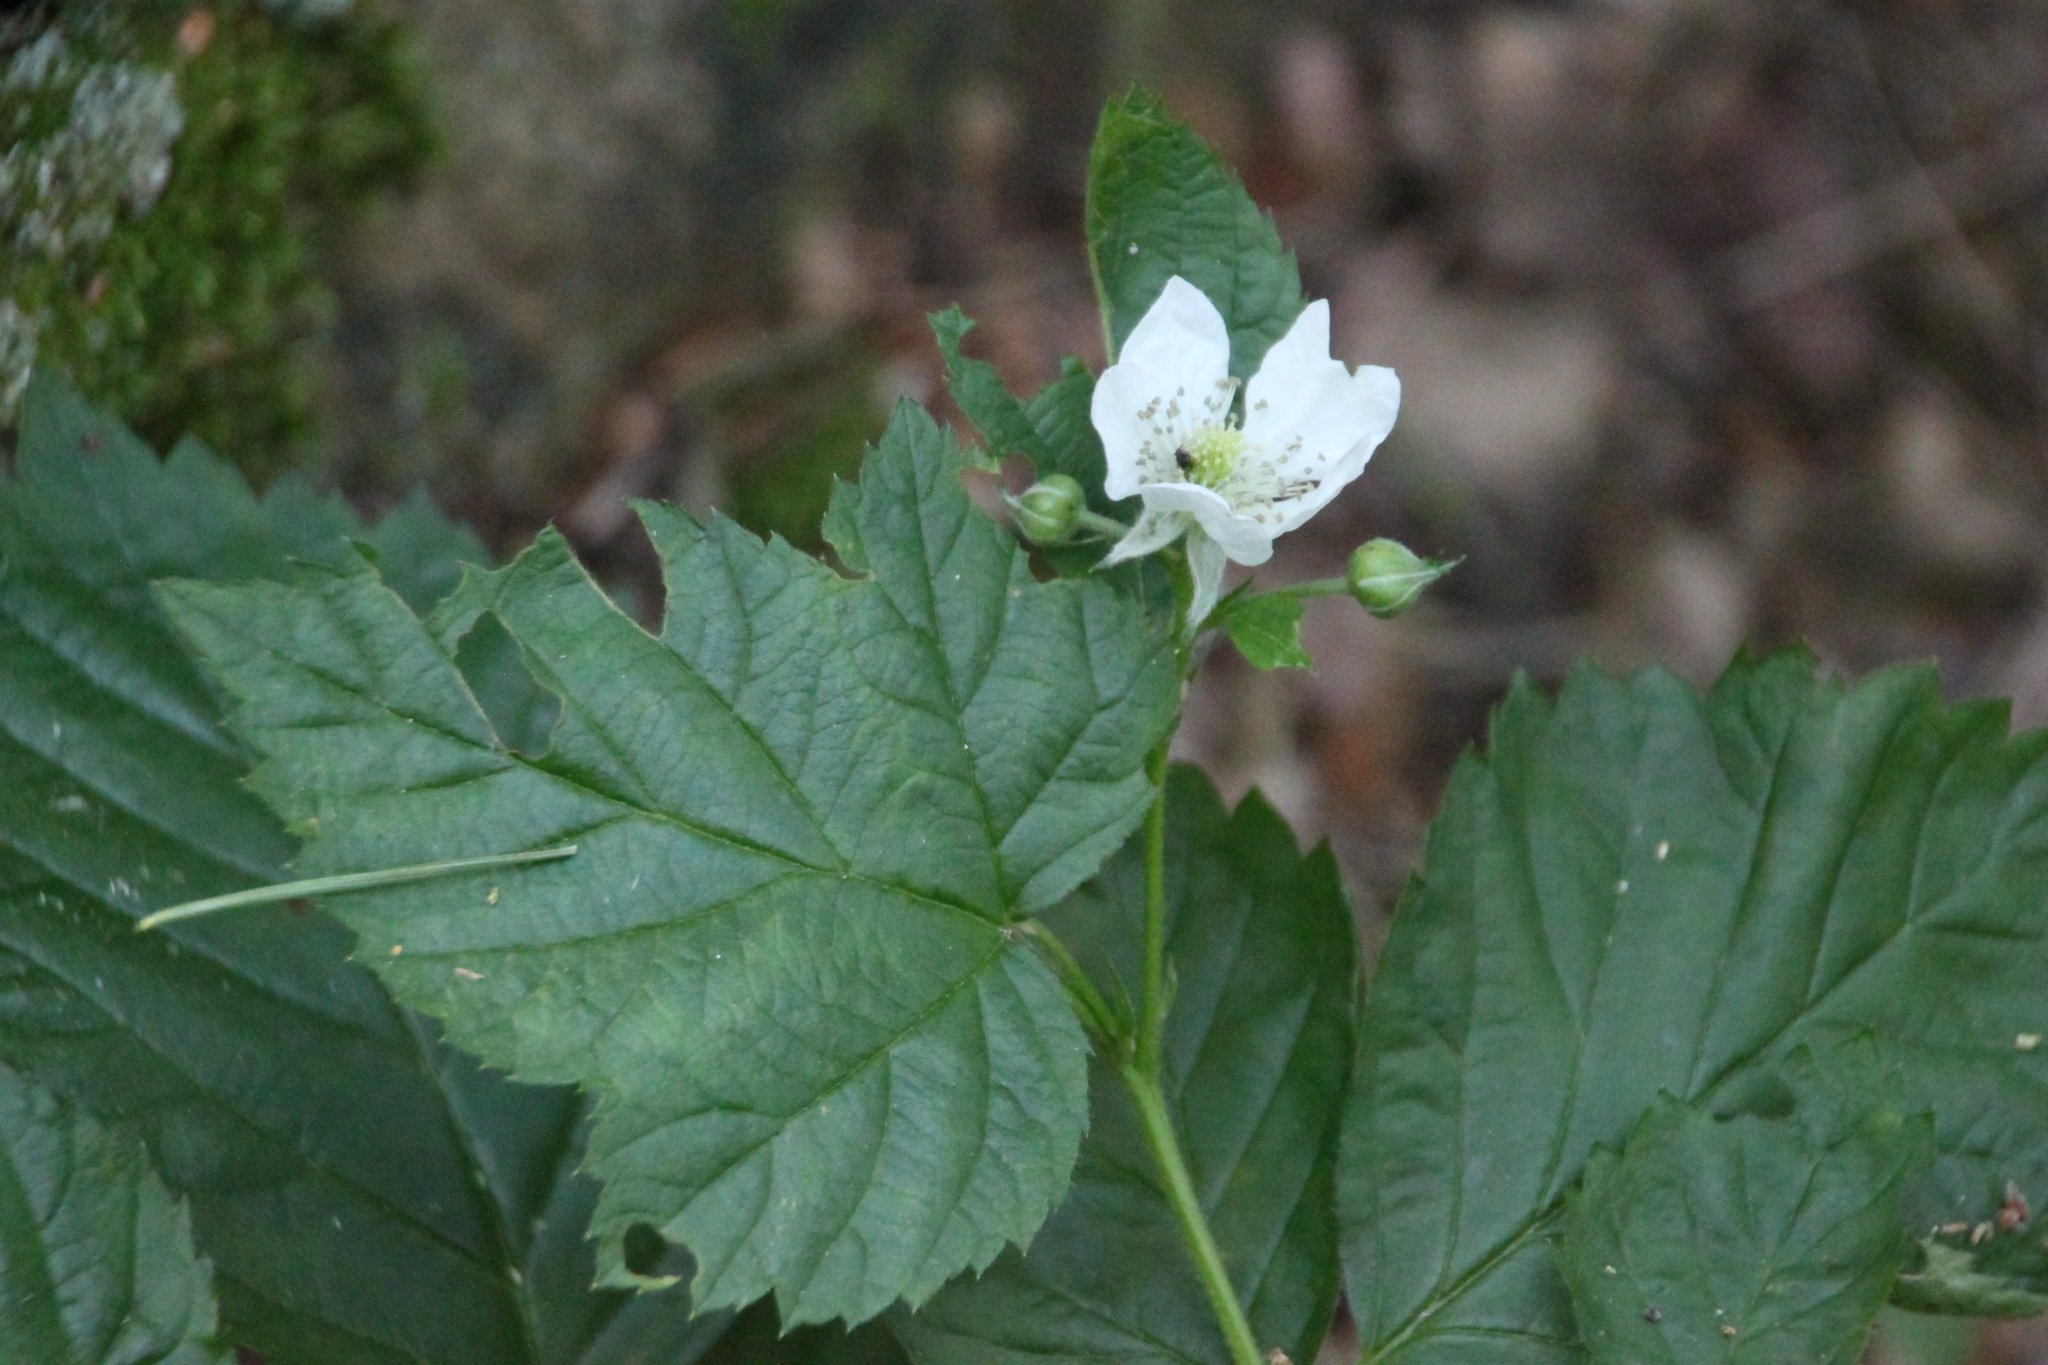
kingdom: Plantae
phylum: Tracheophyta
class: Magnoliopsida
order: Rosales
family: Rosaceae
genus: Rubus
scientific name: Rubus polonicus
